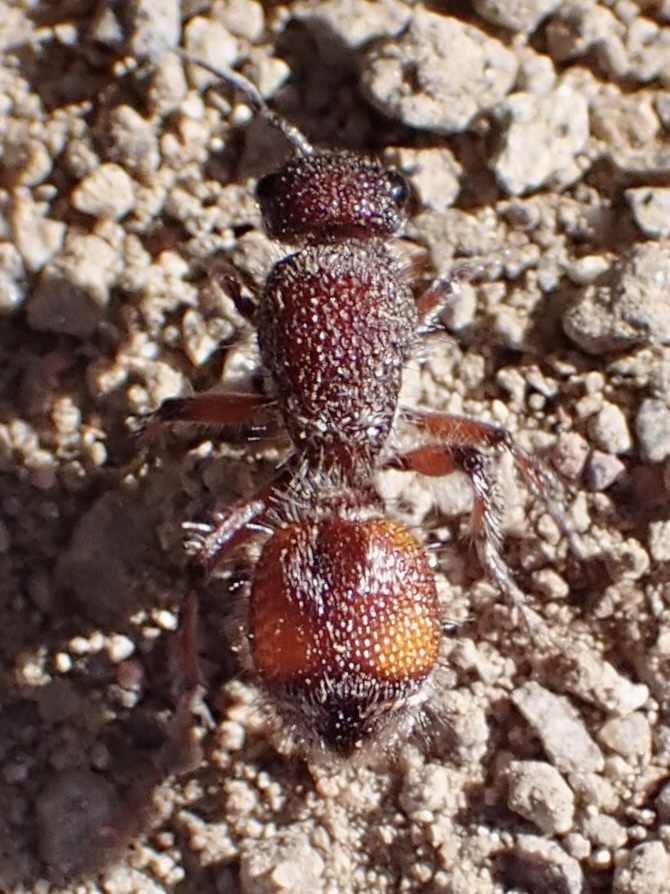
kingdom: Animalia
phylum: Arthropoda
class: Insecta
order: Hymenoptera
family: Mutillidae
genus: Dasymutilla
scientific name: Dasymutilla saetigera
